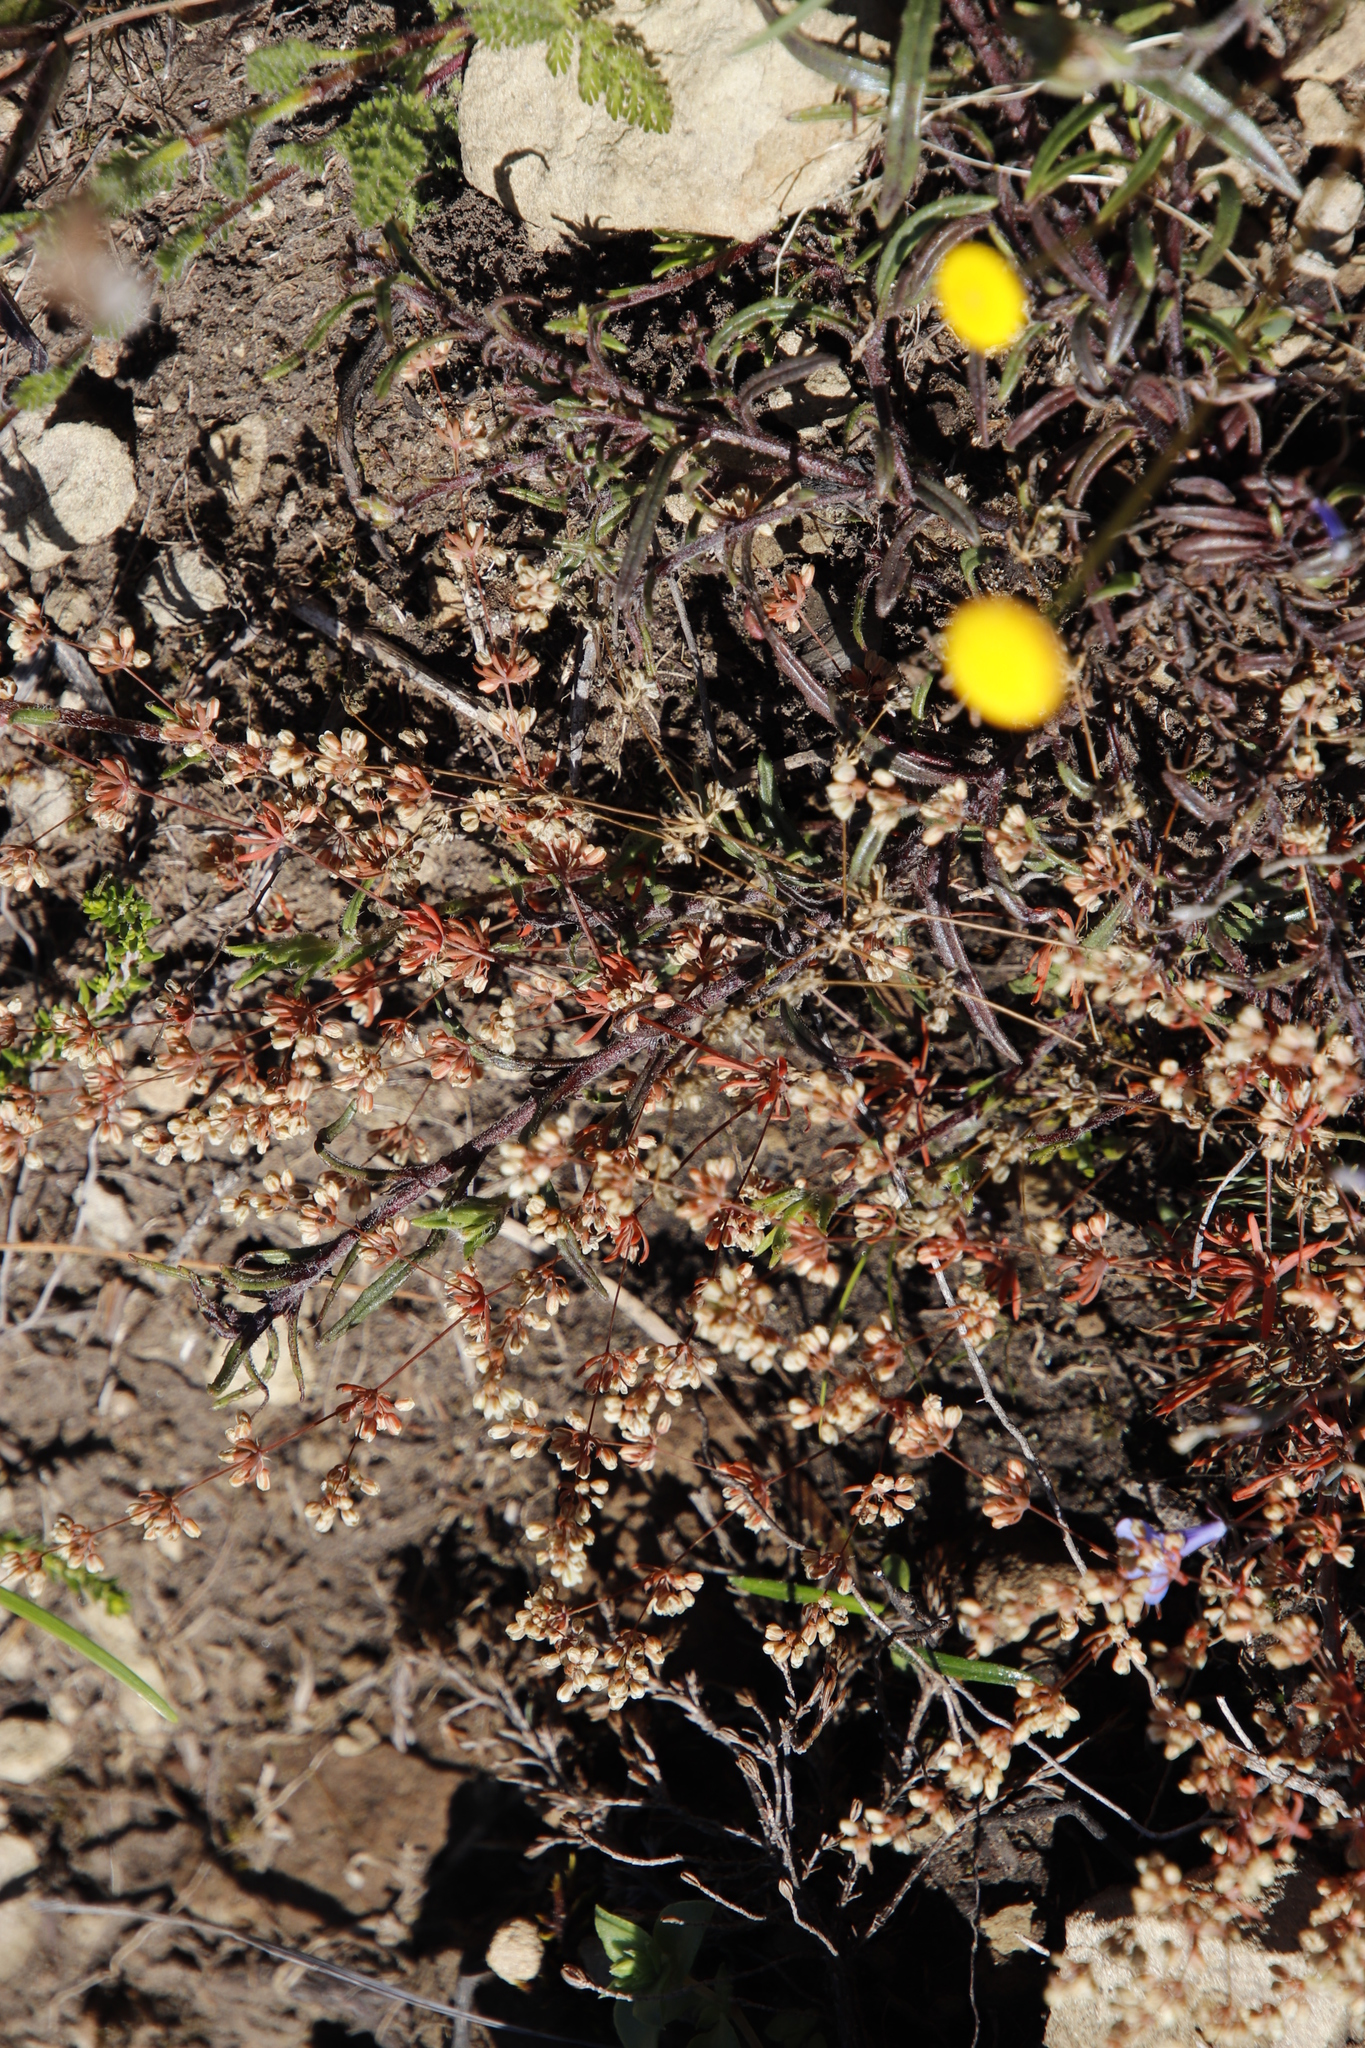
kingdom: Plantae
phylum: Tracheophyta
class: Magnoliopsida
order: Caryophyllales
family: Molluginaceae
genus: Psammotropha
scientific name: Psammotropha mucronata
